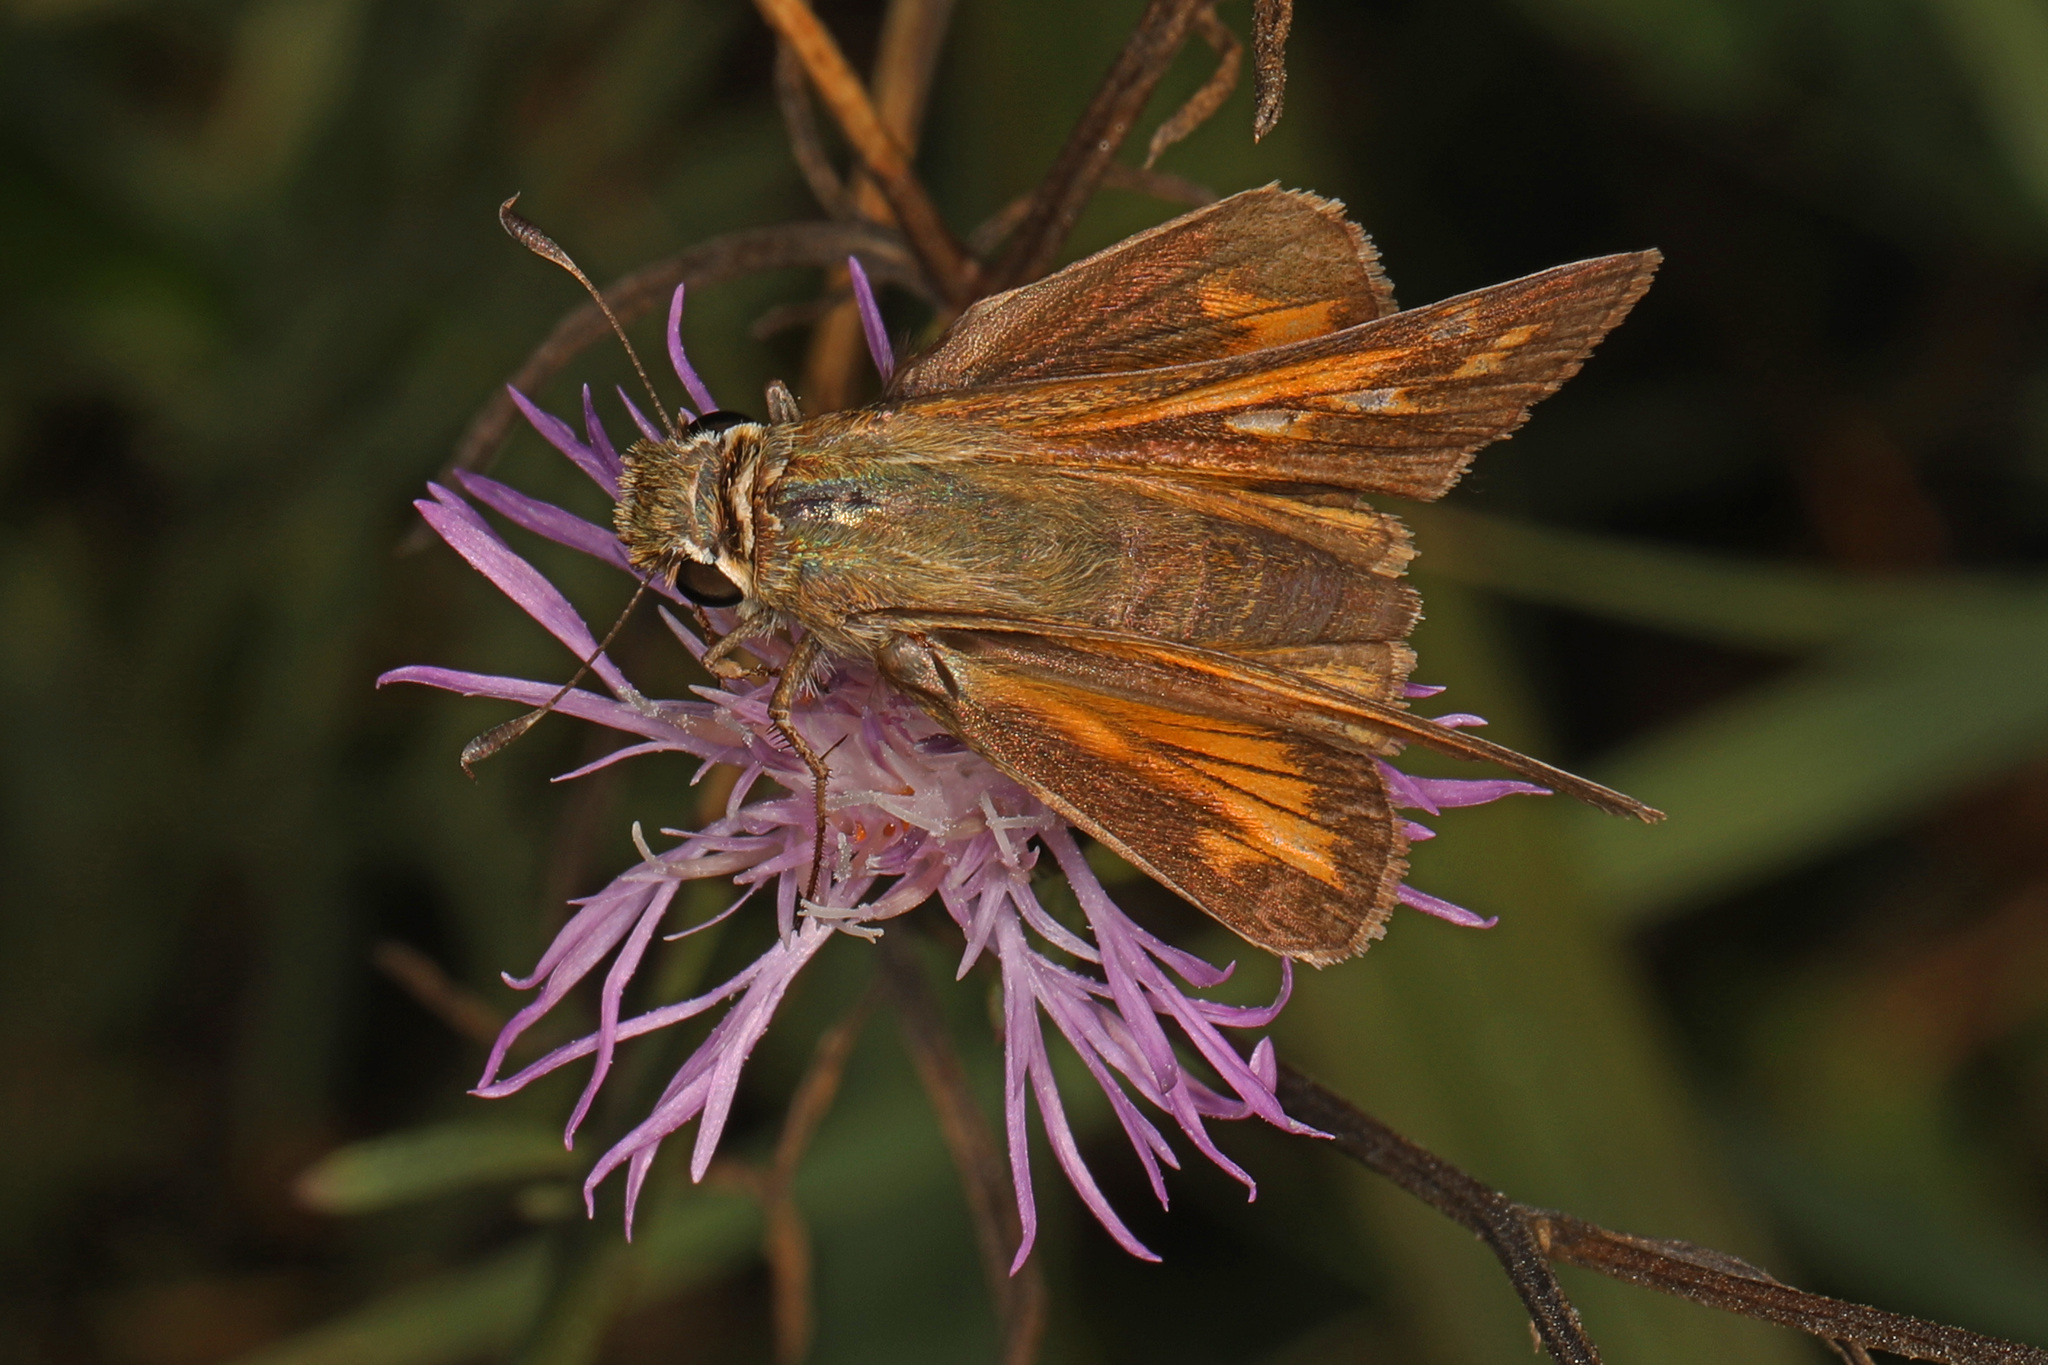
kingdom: Animalia
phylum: Arthropoda
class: Insecta
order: Lepidoptera
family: Hesperiidae
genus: Atalopedes
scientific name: Atalopedes
